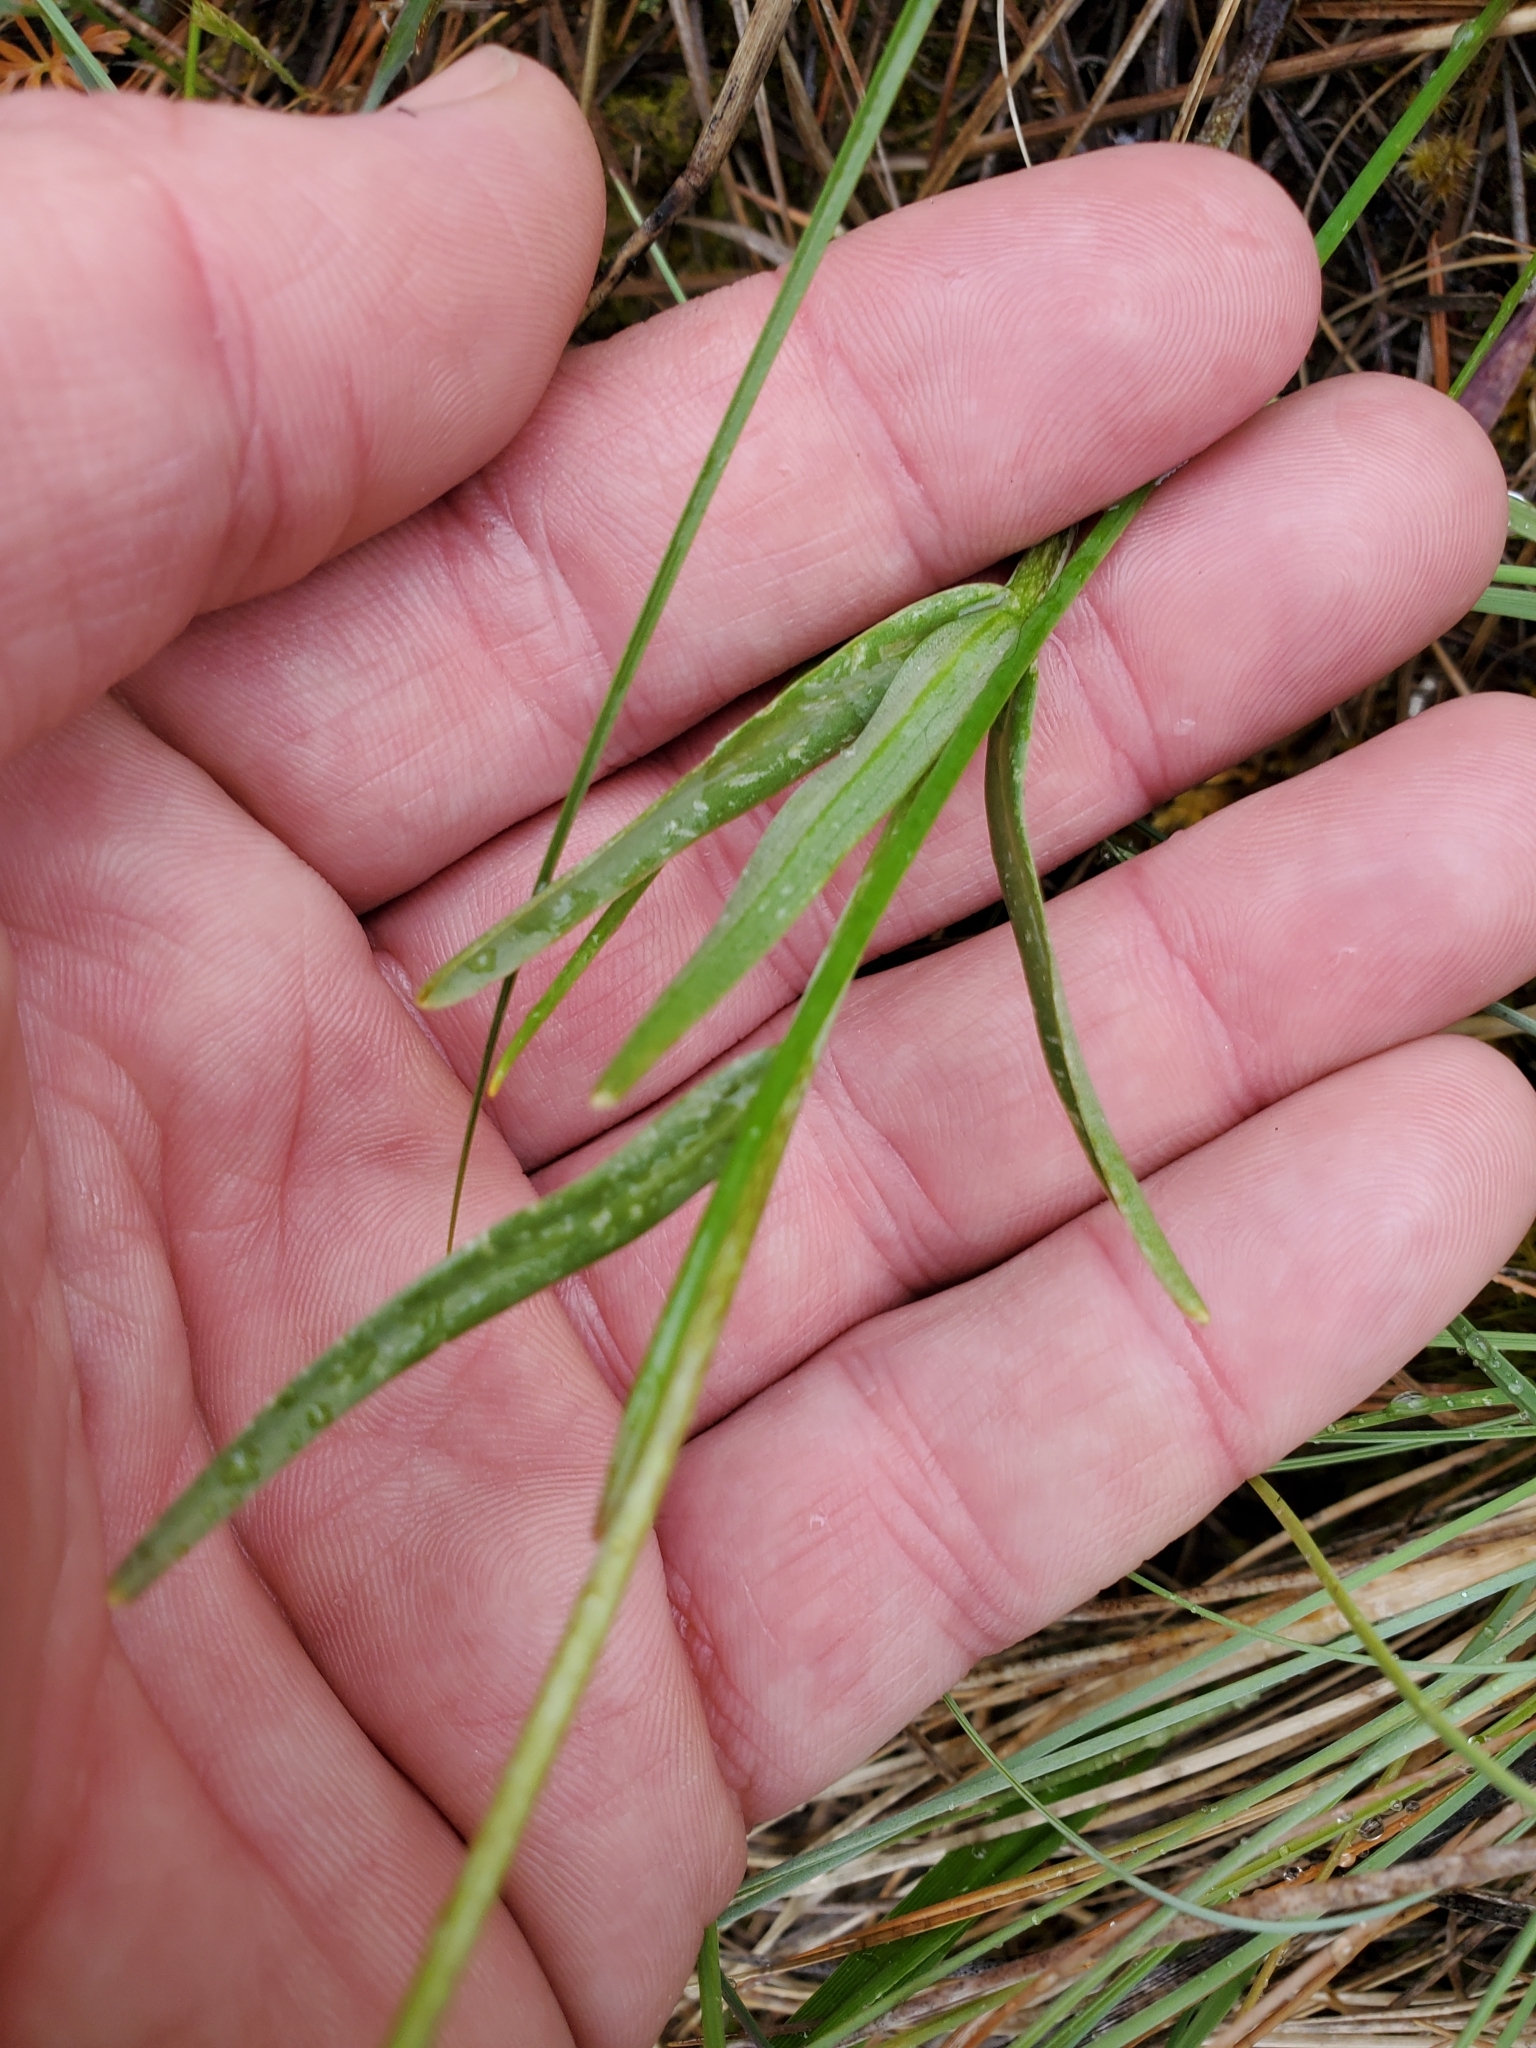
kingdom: Plantae
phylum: Tracheophyta
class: Liliopsida
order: Liliales
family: Liliaceae
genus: Fritillaria
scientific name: Fritillaria affinis
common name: Ojai fritillary
